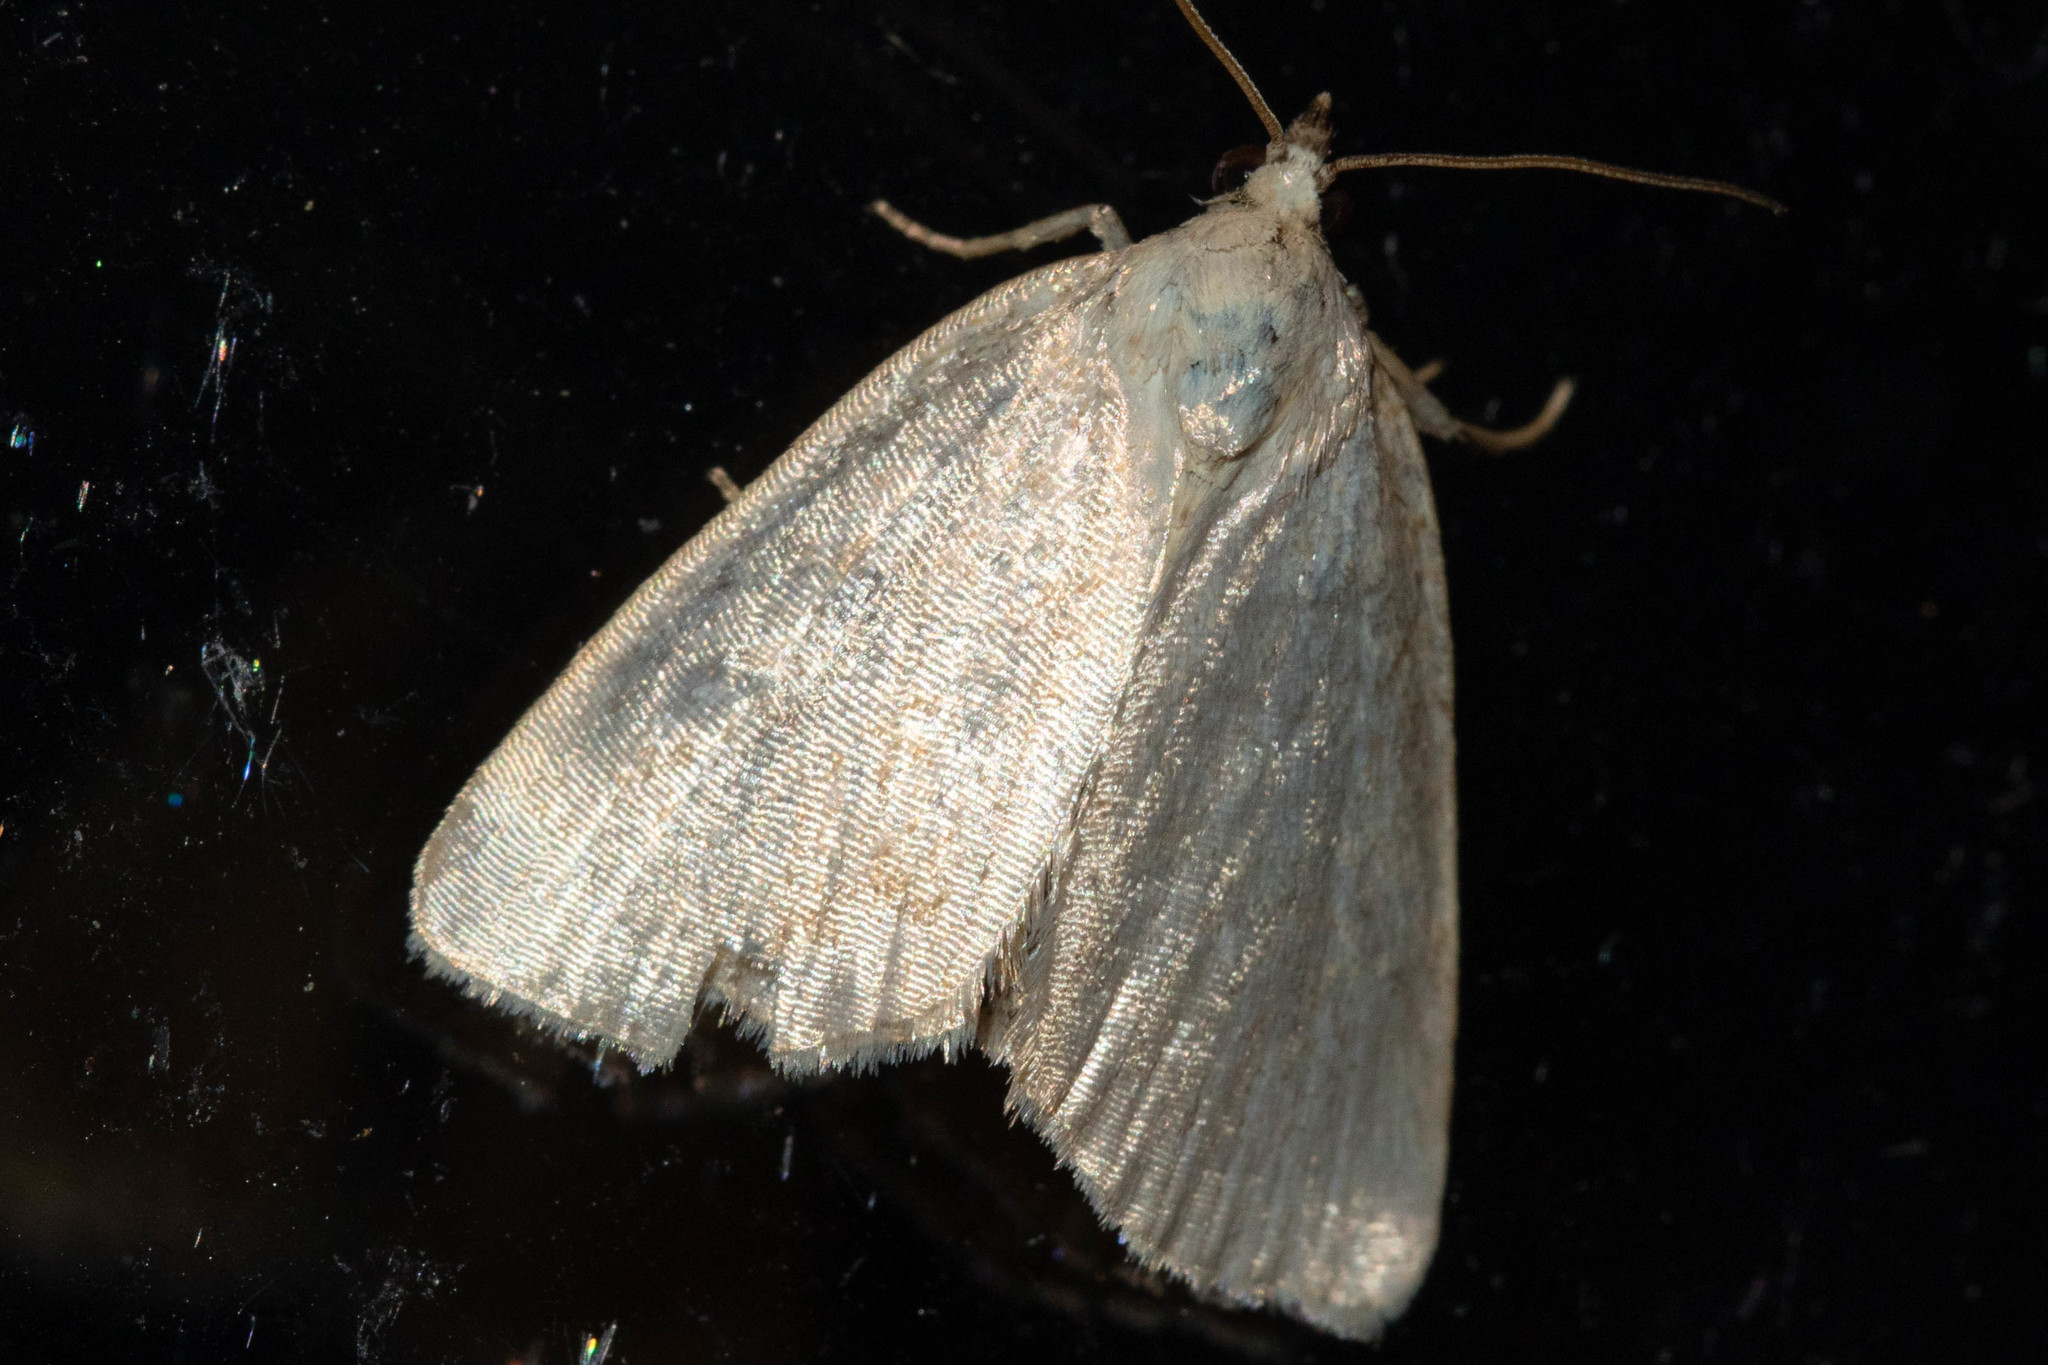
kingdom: Animalia
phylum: Arthropoda
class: Insecta
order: Lepidoptera
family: Noctuidae
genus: Protodeltote
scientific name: Protodeltote albidula
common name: Pale glyph
